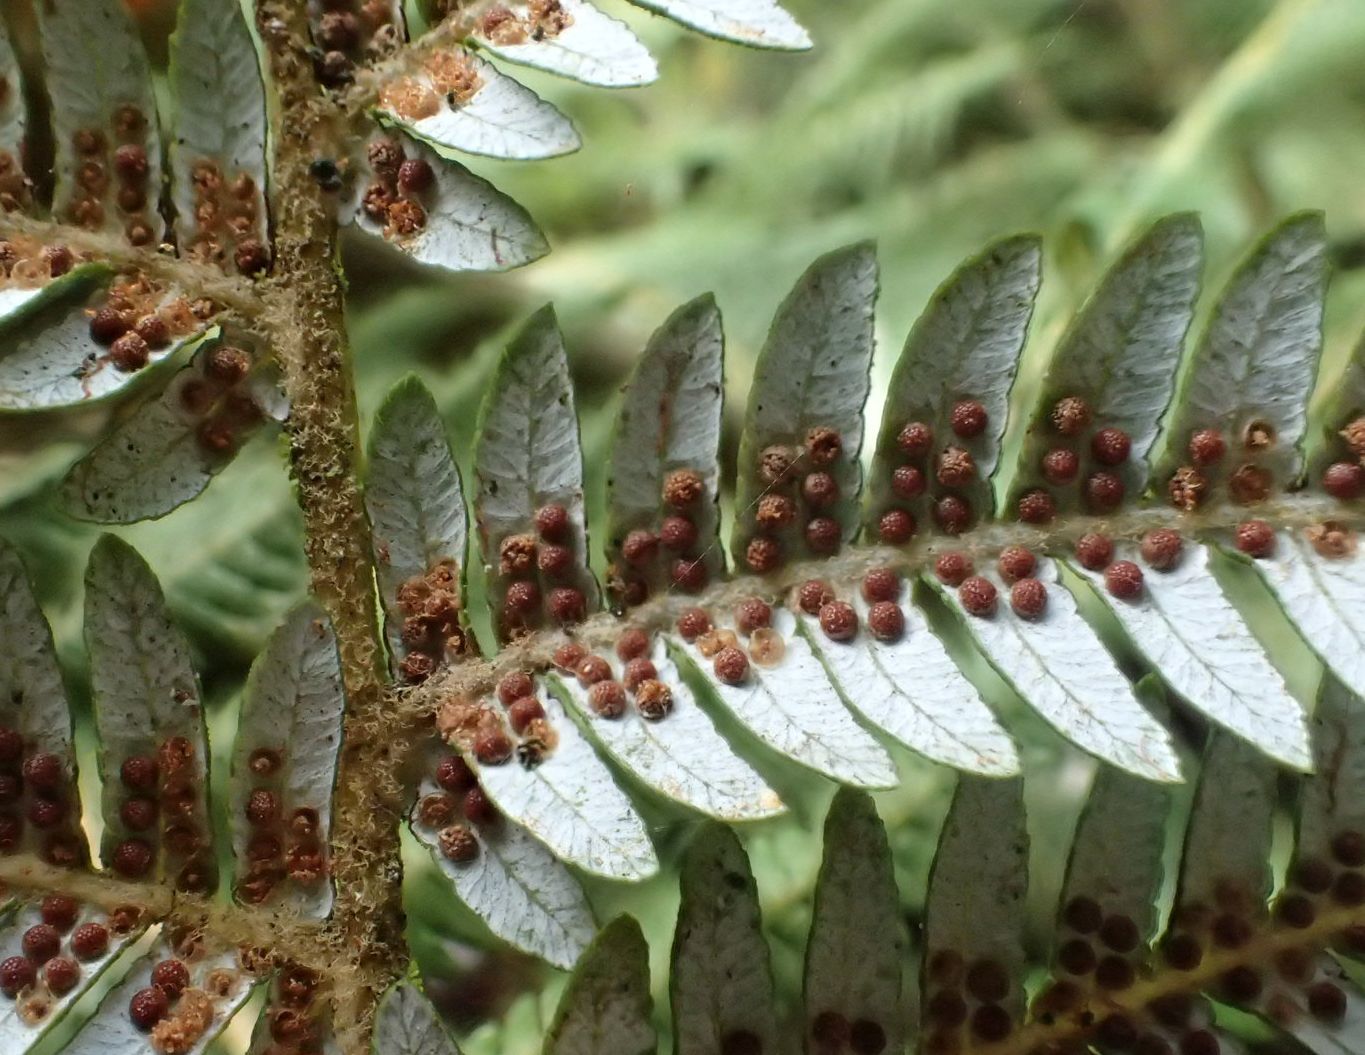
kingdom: Plantae
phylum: Tracheophyta
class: Polypodiopsida
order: Cyatheales
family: Cyatheaceae
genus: Alsophila
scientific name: Alsophila dealbata
